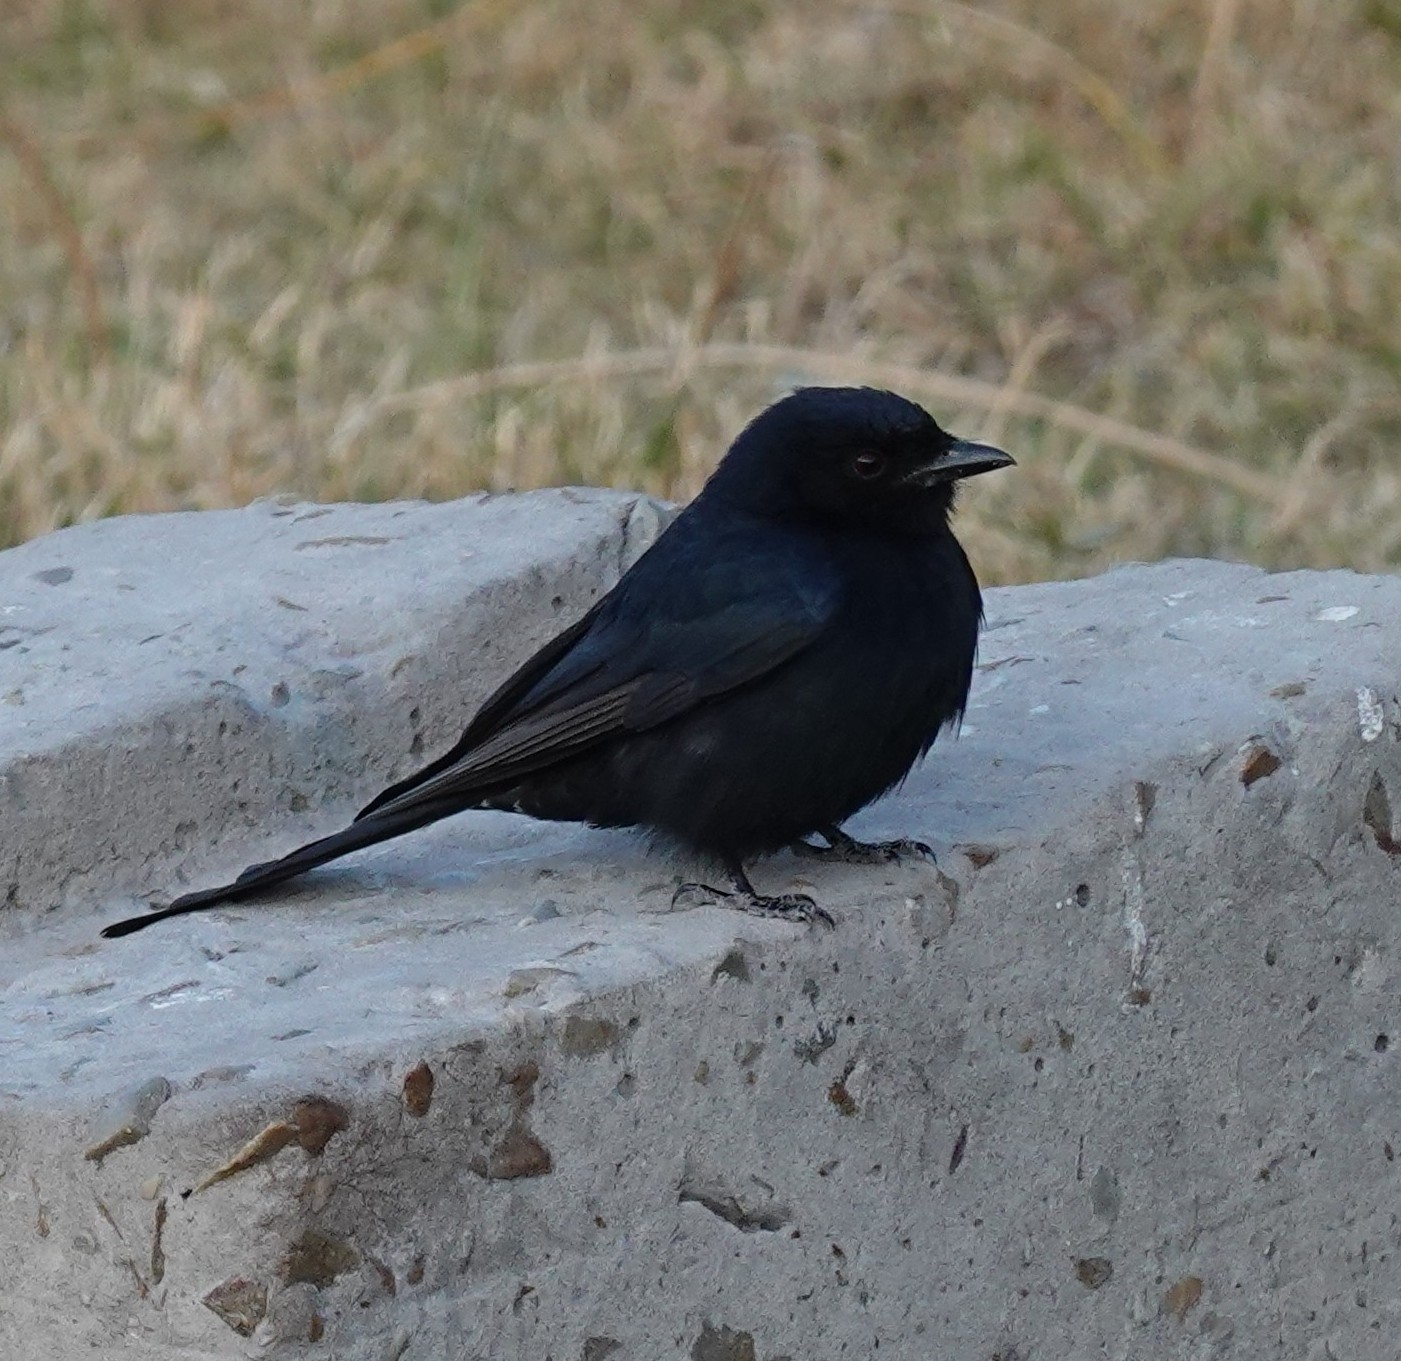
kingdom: Animalia
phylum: Chordata
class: Aves
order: Passeriformes
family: Dicruridae
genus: Dicrurus
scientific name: Dicrurus adsimilis
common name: Fork-tailed drongo
